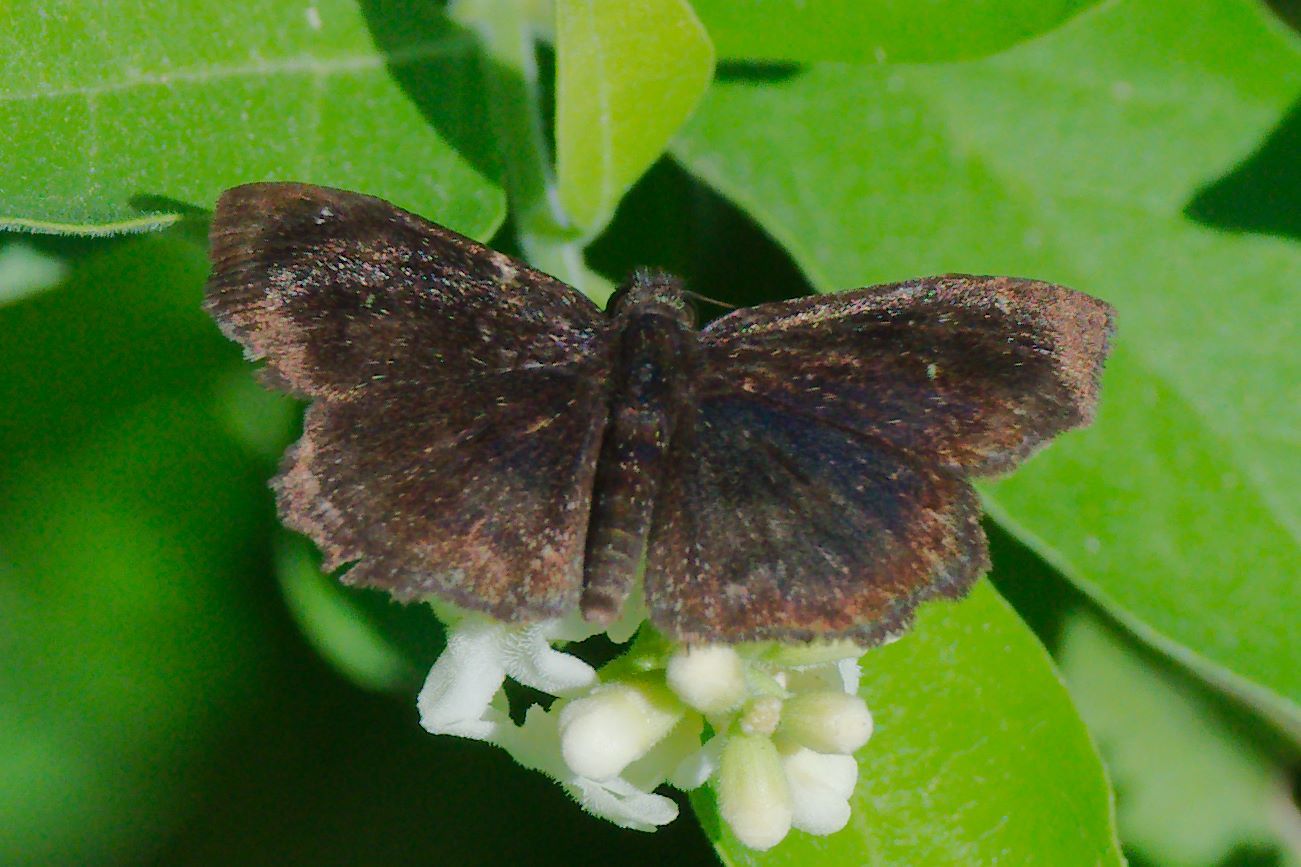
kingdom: Animalia
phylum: Arthropoda
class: Insecta
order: Lepidoptera
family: Hesperiidae
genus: Staphylus
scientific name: Staphylus mazans
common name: Mazans scallopwing
